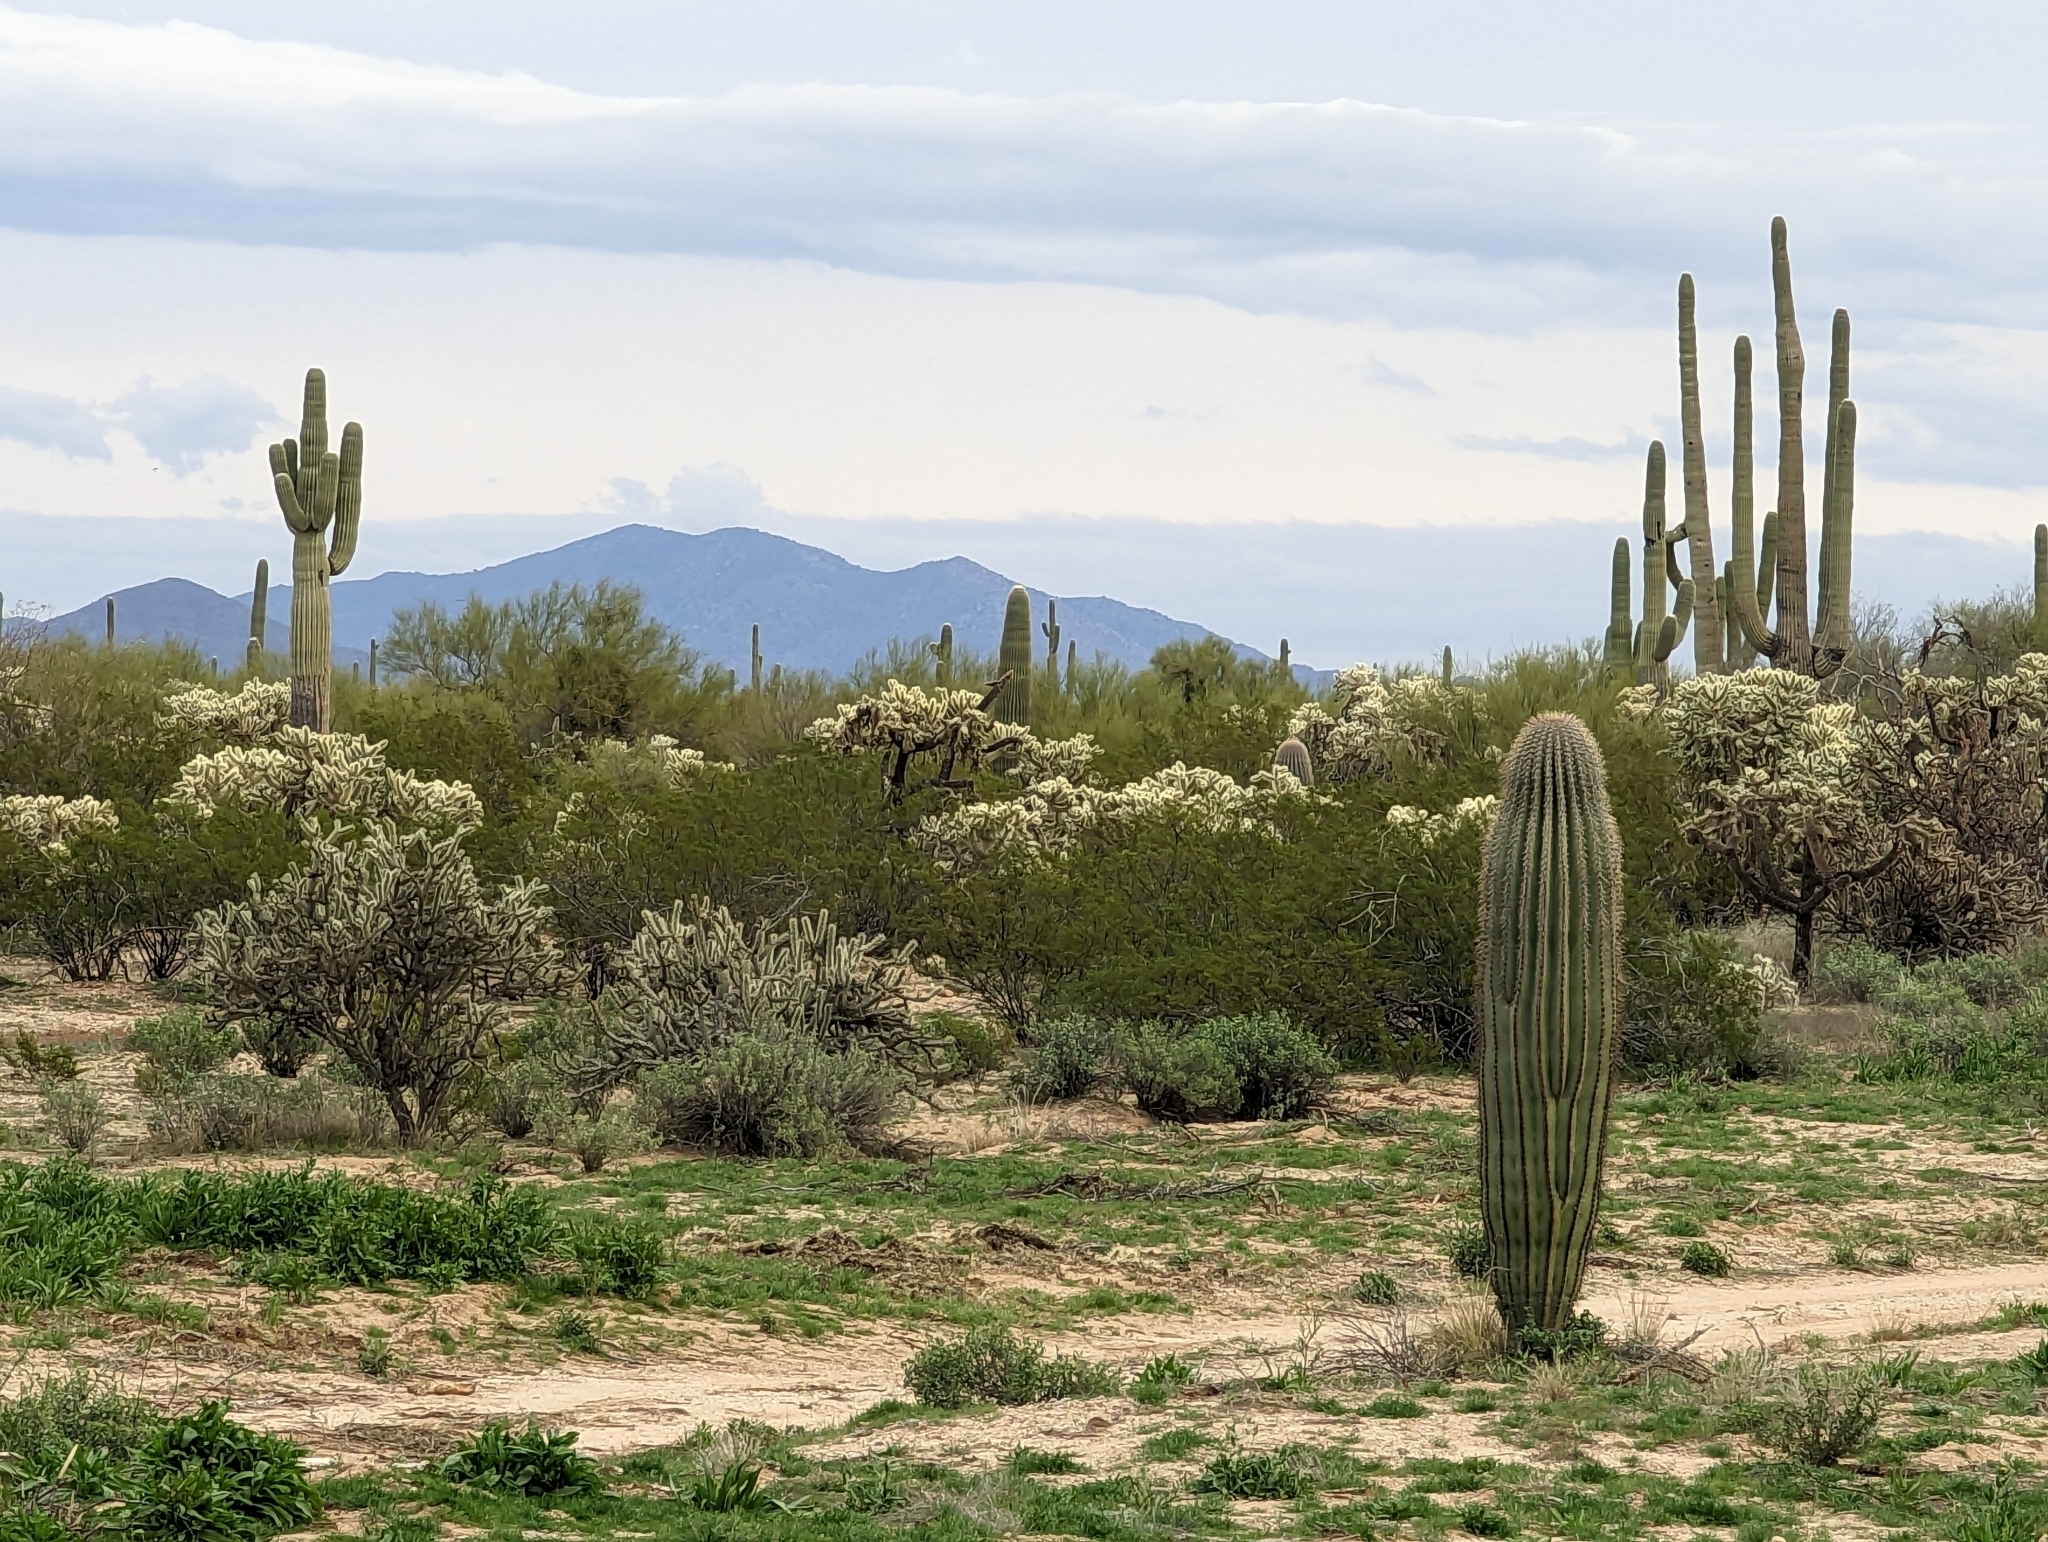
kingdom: Plantae
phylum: Tracheophyta
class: Magnoliopsida
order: Caryophyllales
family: Cactaceae
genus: Carnegiea
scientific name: Carnegiea gigantea
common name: Saguaro
